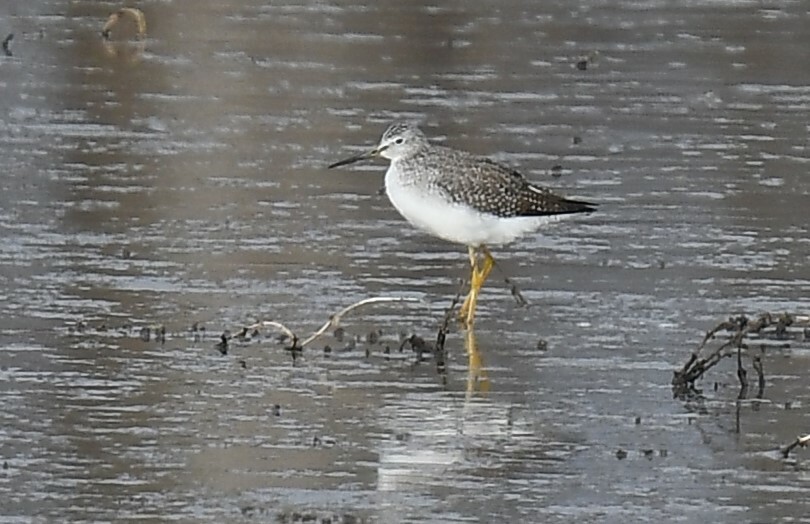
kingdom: Animalia
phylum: Chordata
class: Aves
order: Charadriiformes
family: Scolopacidae
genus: Tringa
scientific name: Tringa melanoleuca
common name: Greater yellowlegs
